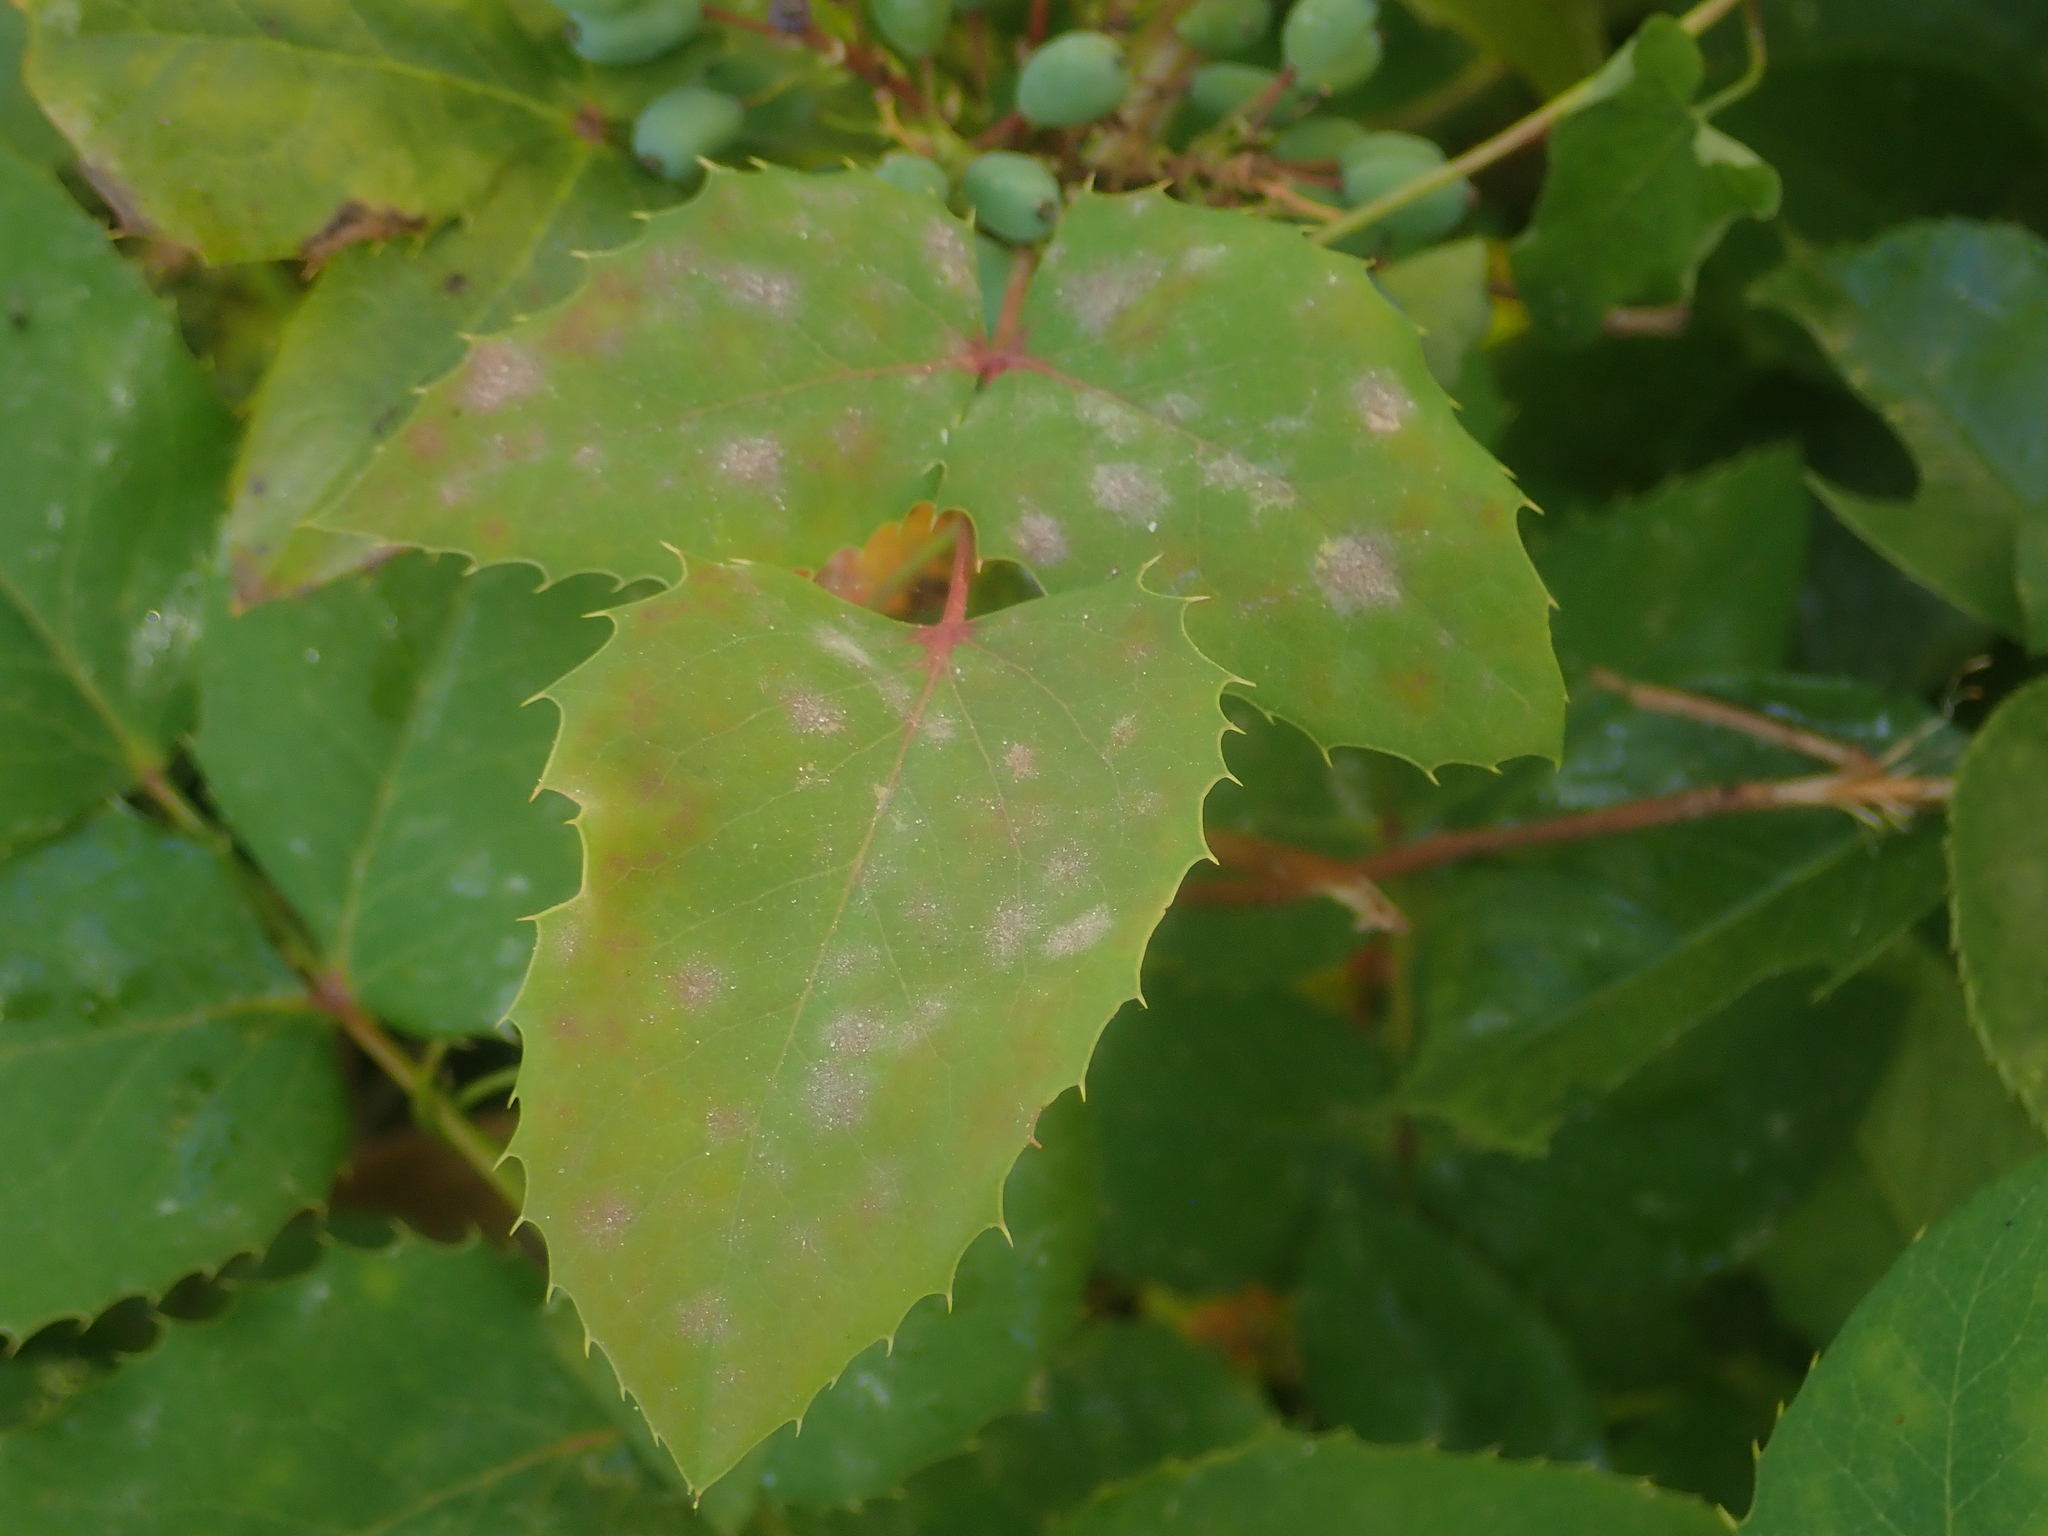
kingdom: Fungi
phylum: Ascomycota
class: Leotiomycetes
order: Helotiales
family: Erysiphaceae
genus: Erysiphe
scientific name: Erysiphe berberidis
